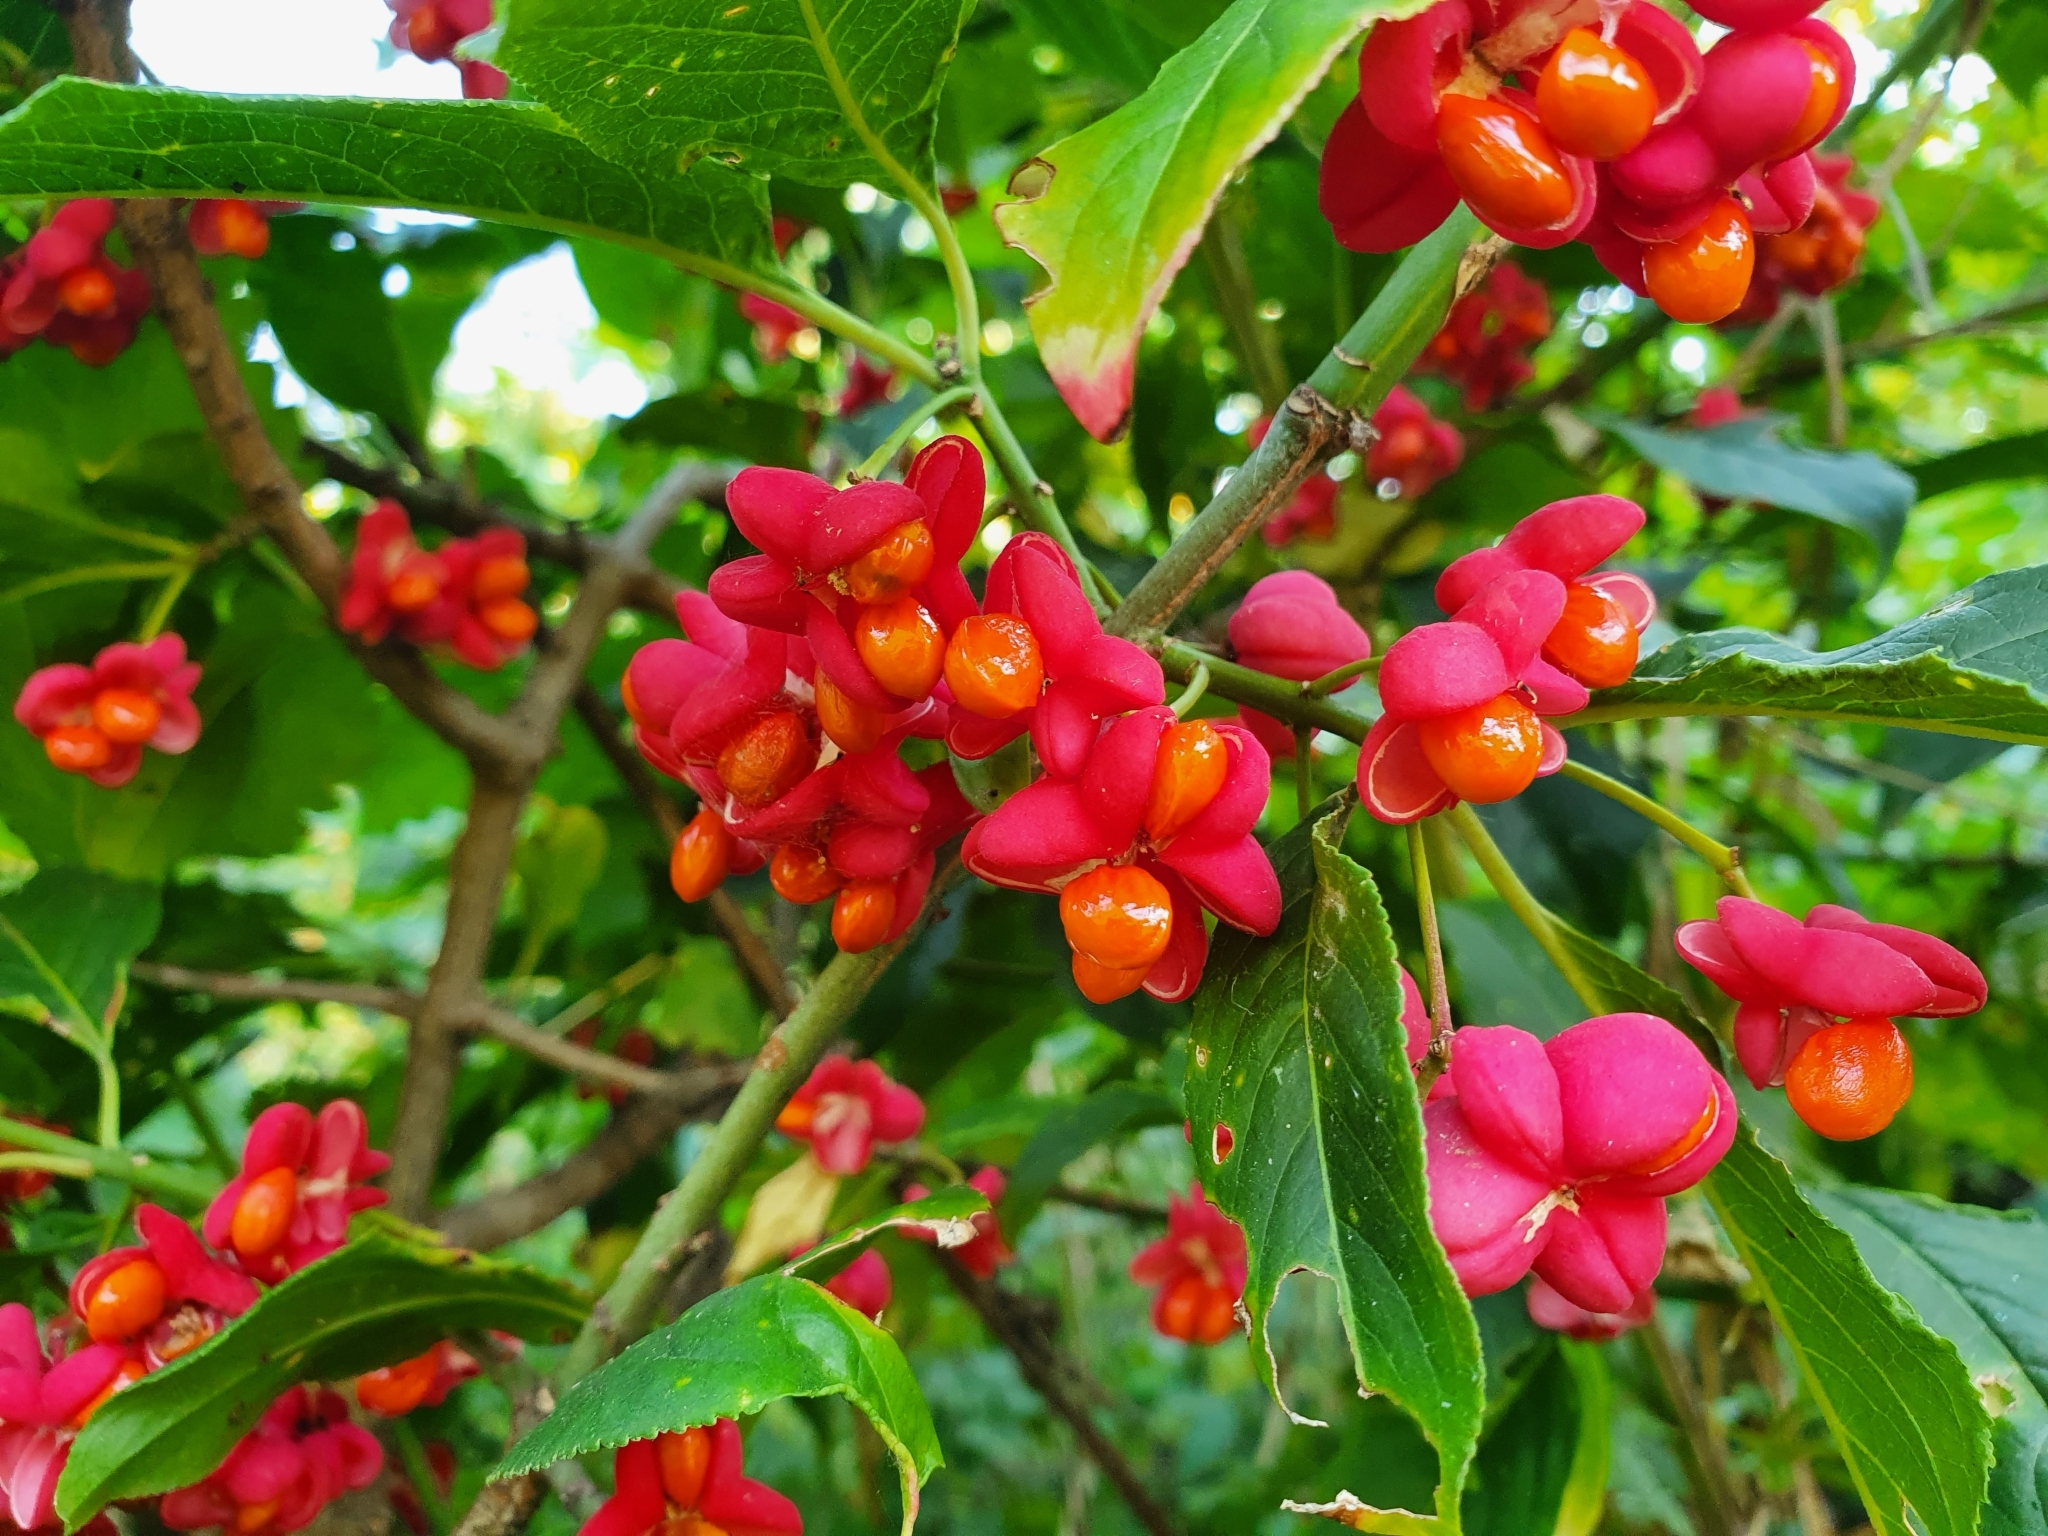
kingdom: Plantae
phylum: Tracheophyta
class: Magnoliopsida
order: Celastrales
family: Celastraceae
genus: Euonymus
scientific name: Euonymus europaeus
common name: Spindle
